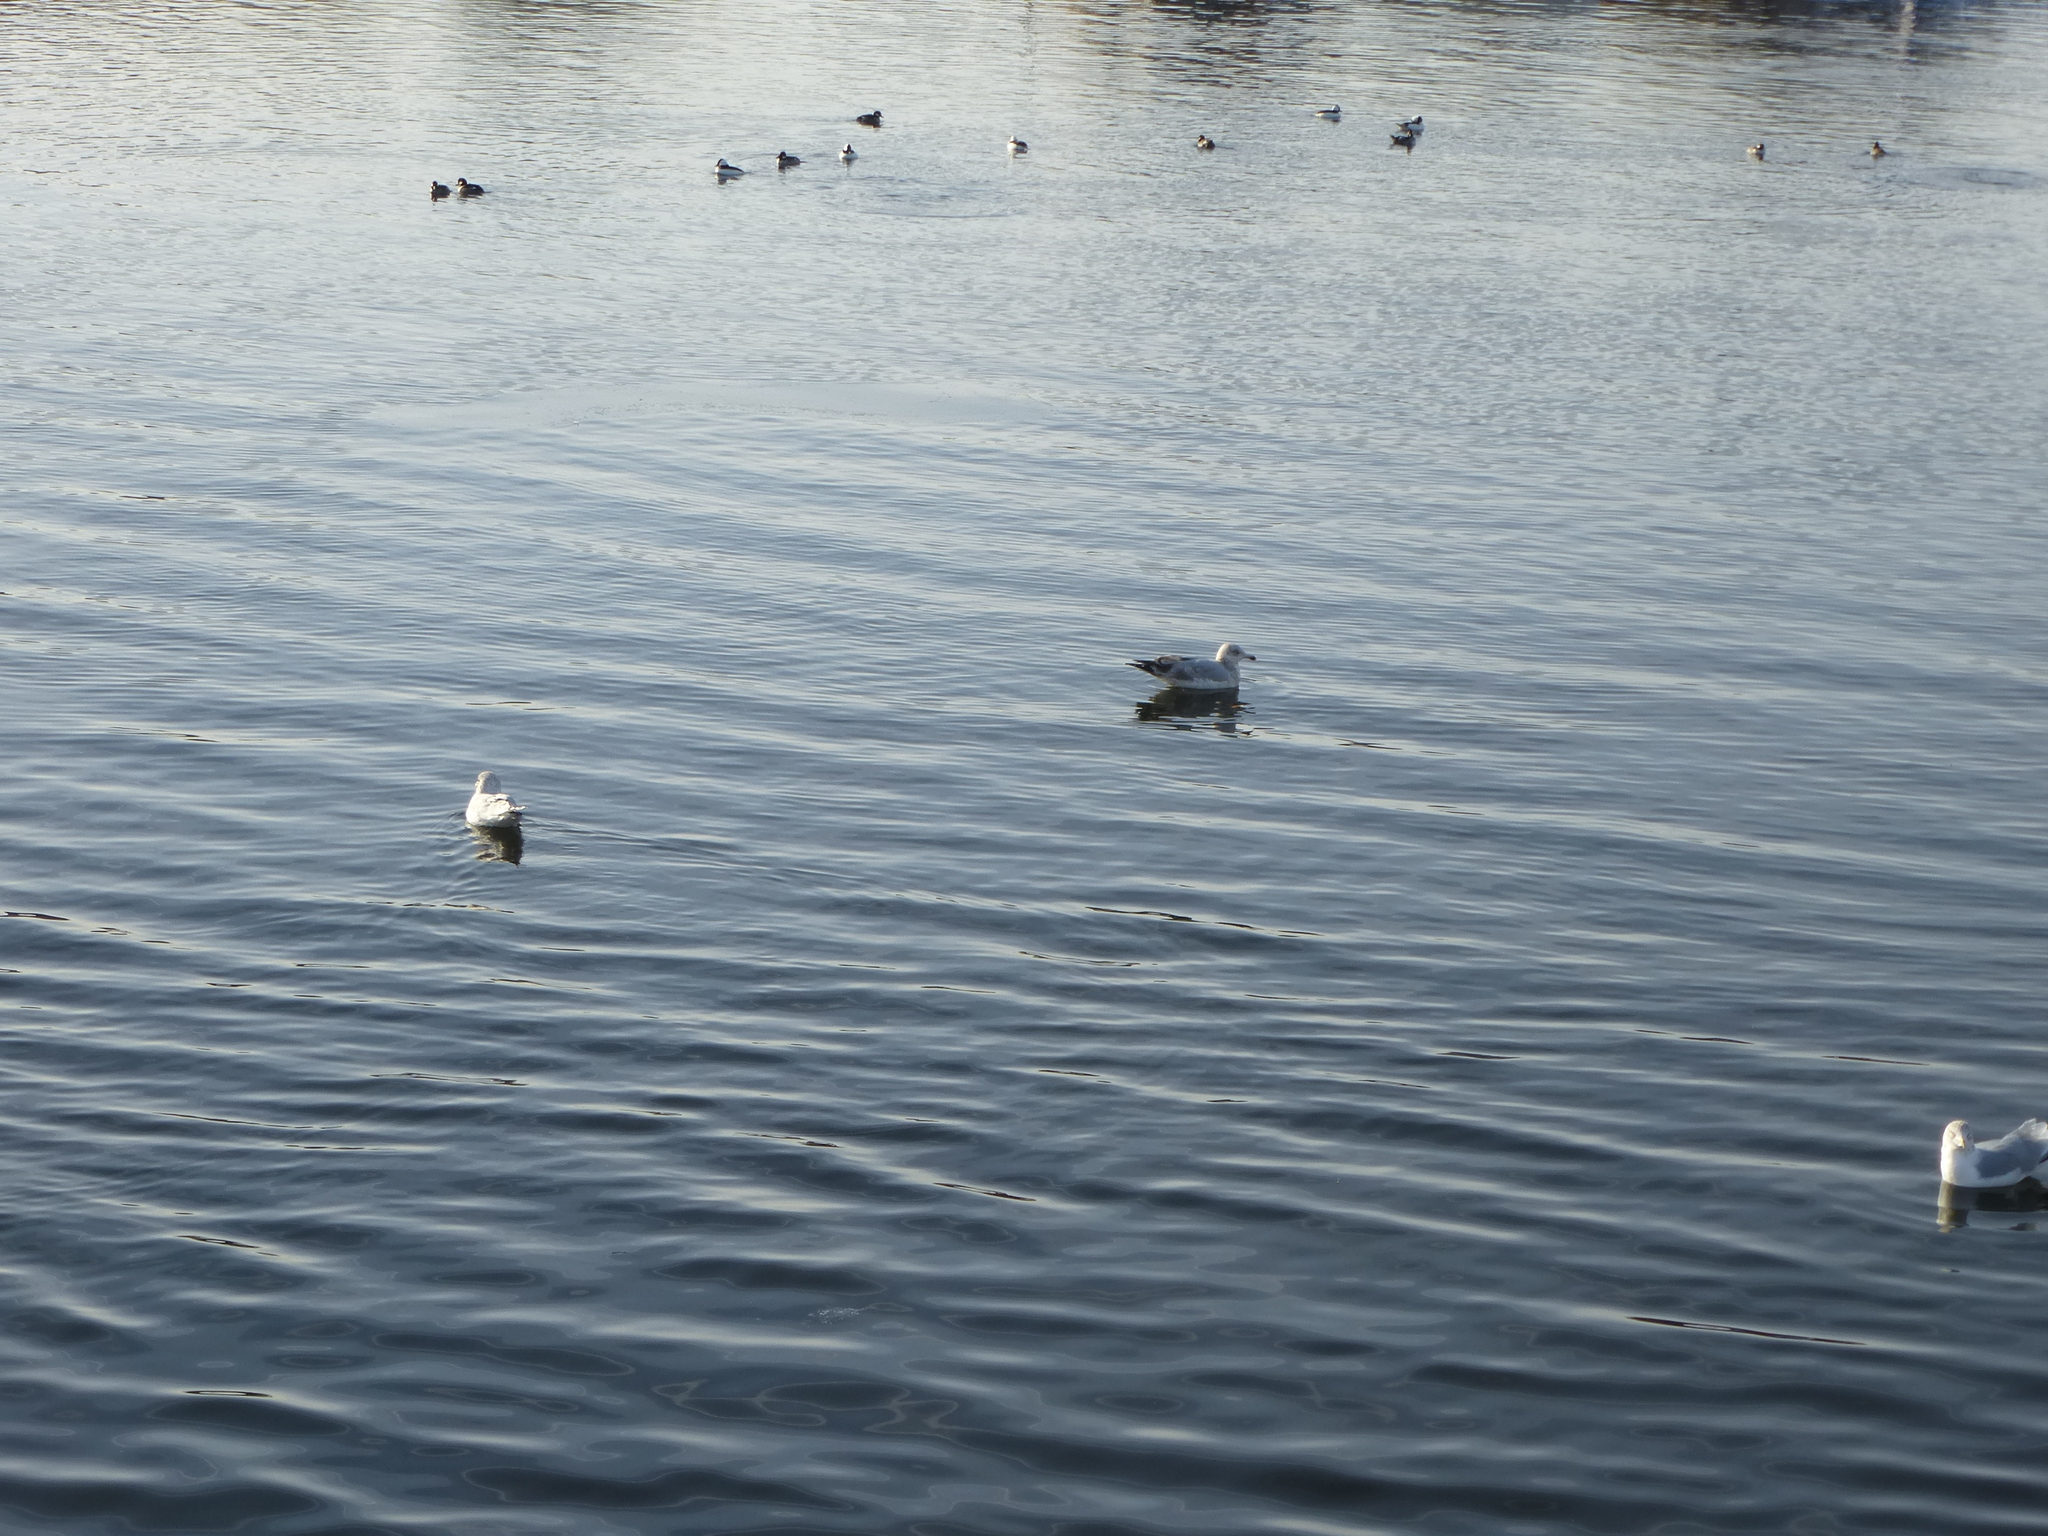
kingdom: Animalia
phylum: Chordata
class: Aves
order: Charadriiformes
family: Laridae
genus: Larus
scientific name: Larus delawarensis
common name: Ring-billed gull
